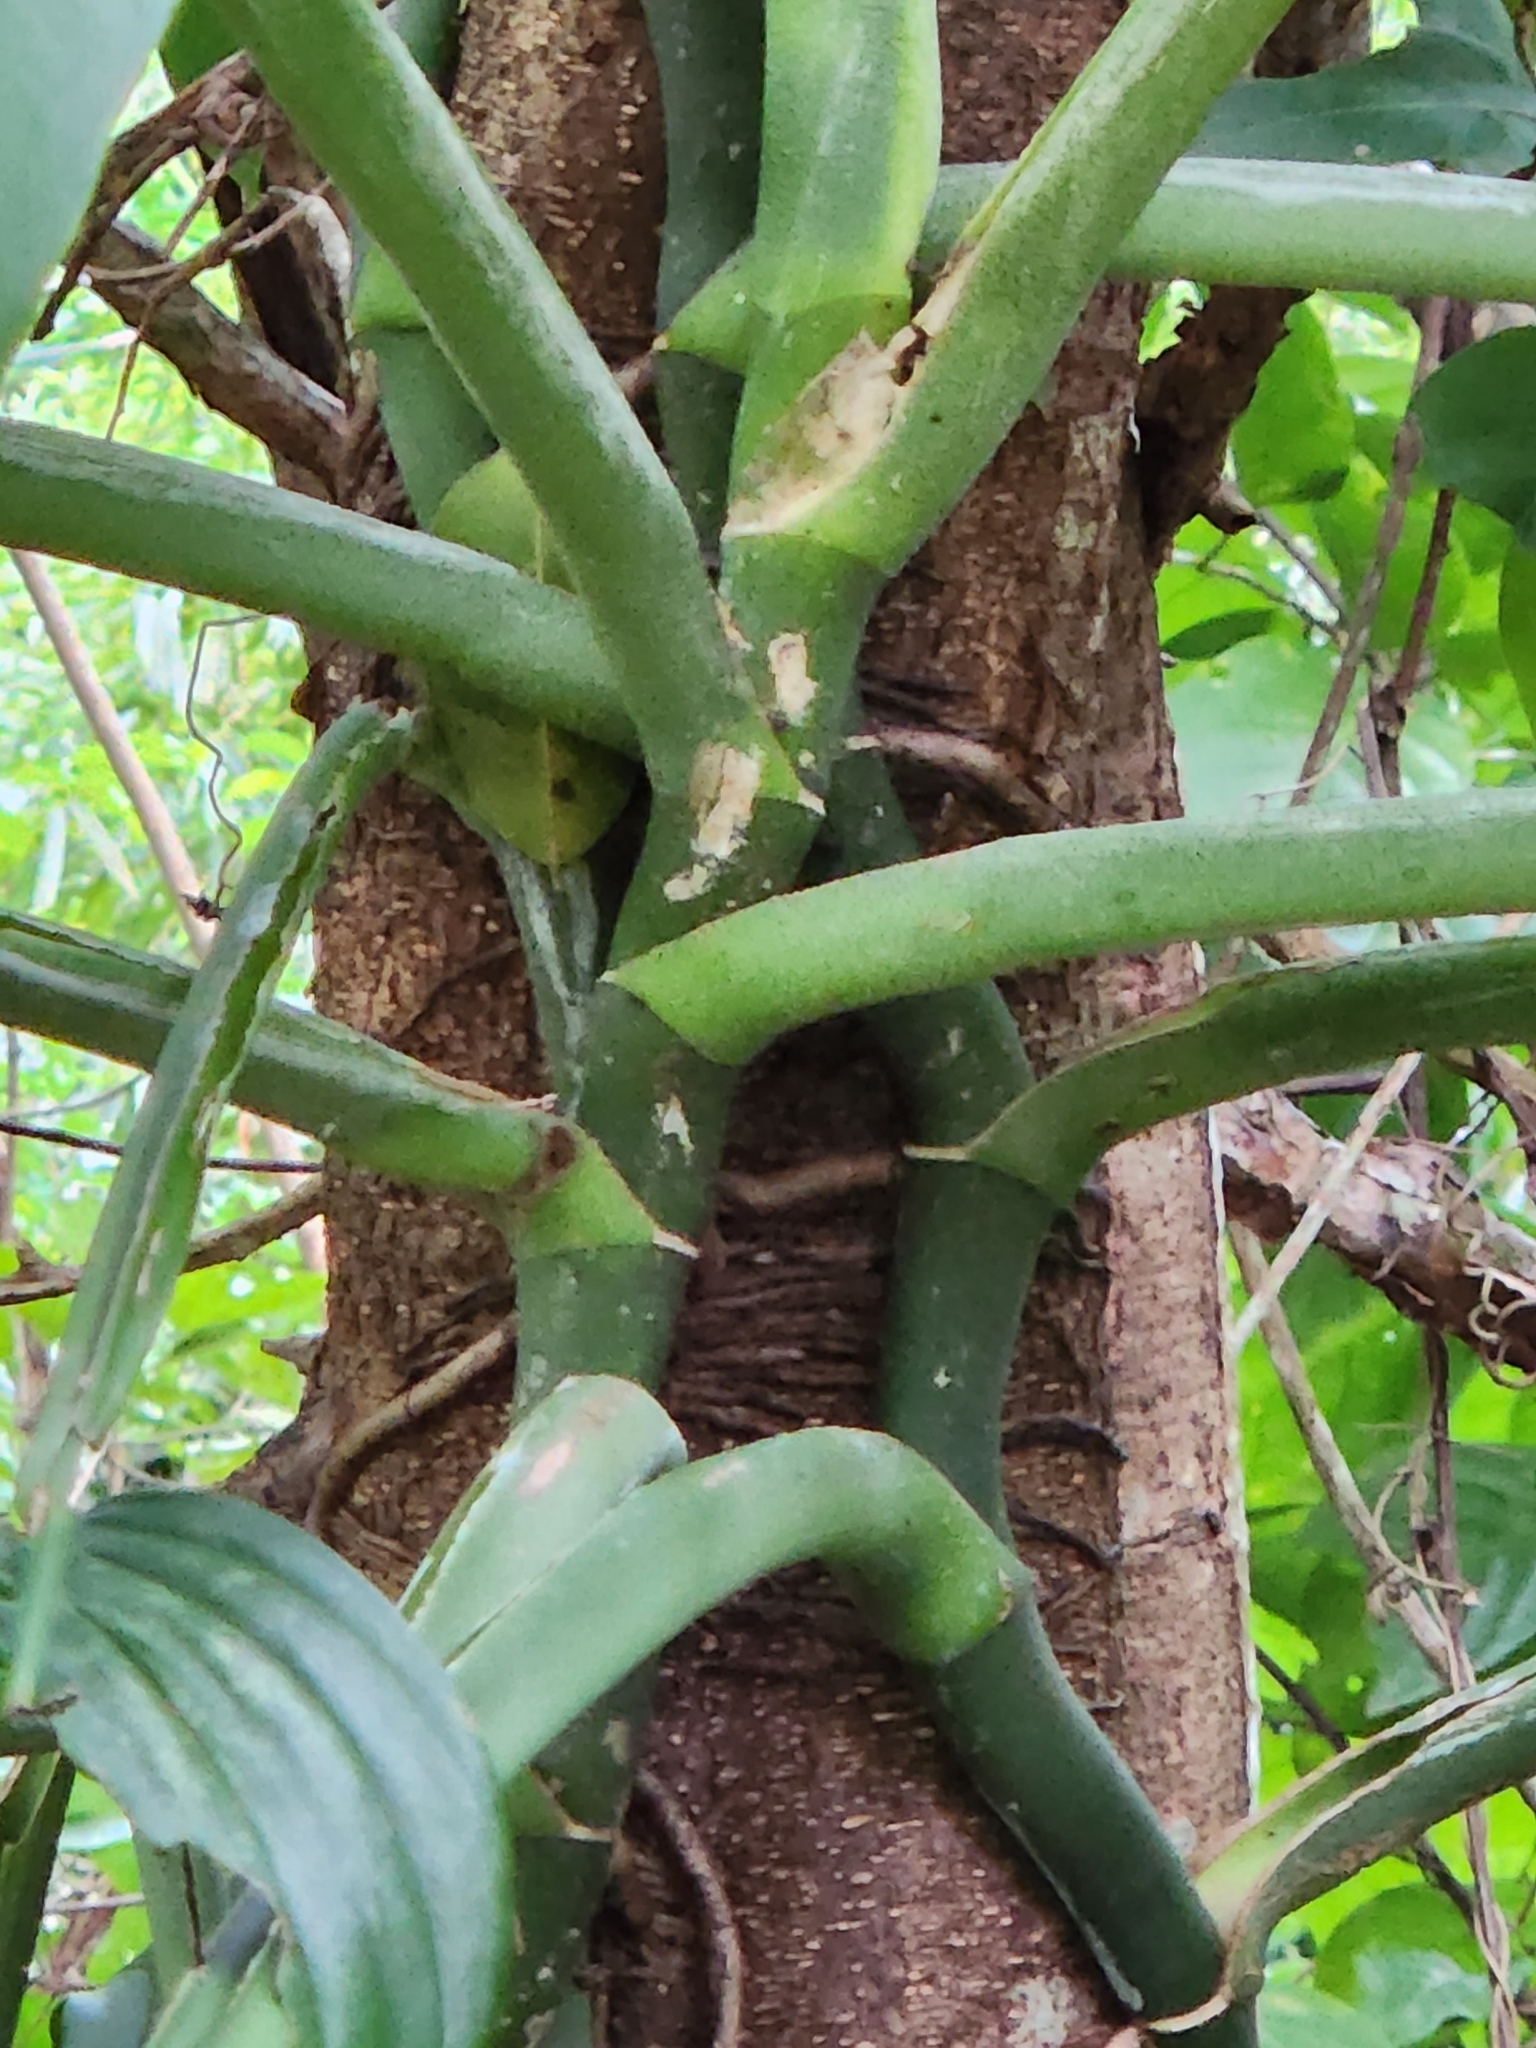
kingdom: Plantae
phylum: Tracheophyta
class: Liliopsida
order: Alismatales
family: Araceae
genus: Monstera
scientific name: Monstera adansonii
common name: Tarovine
